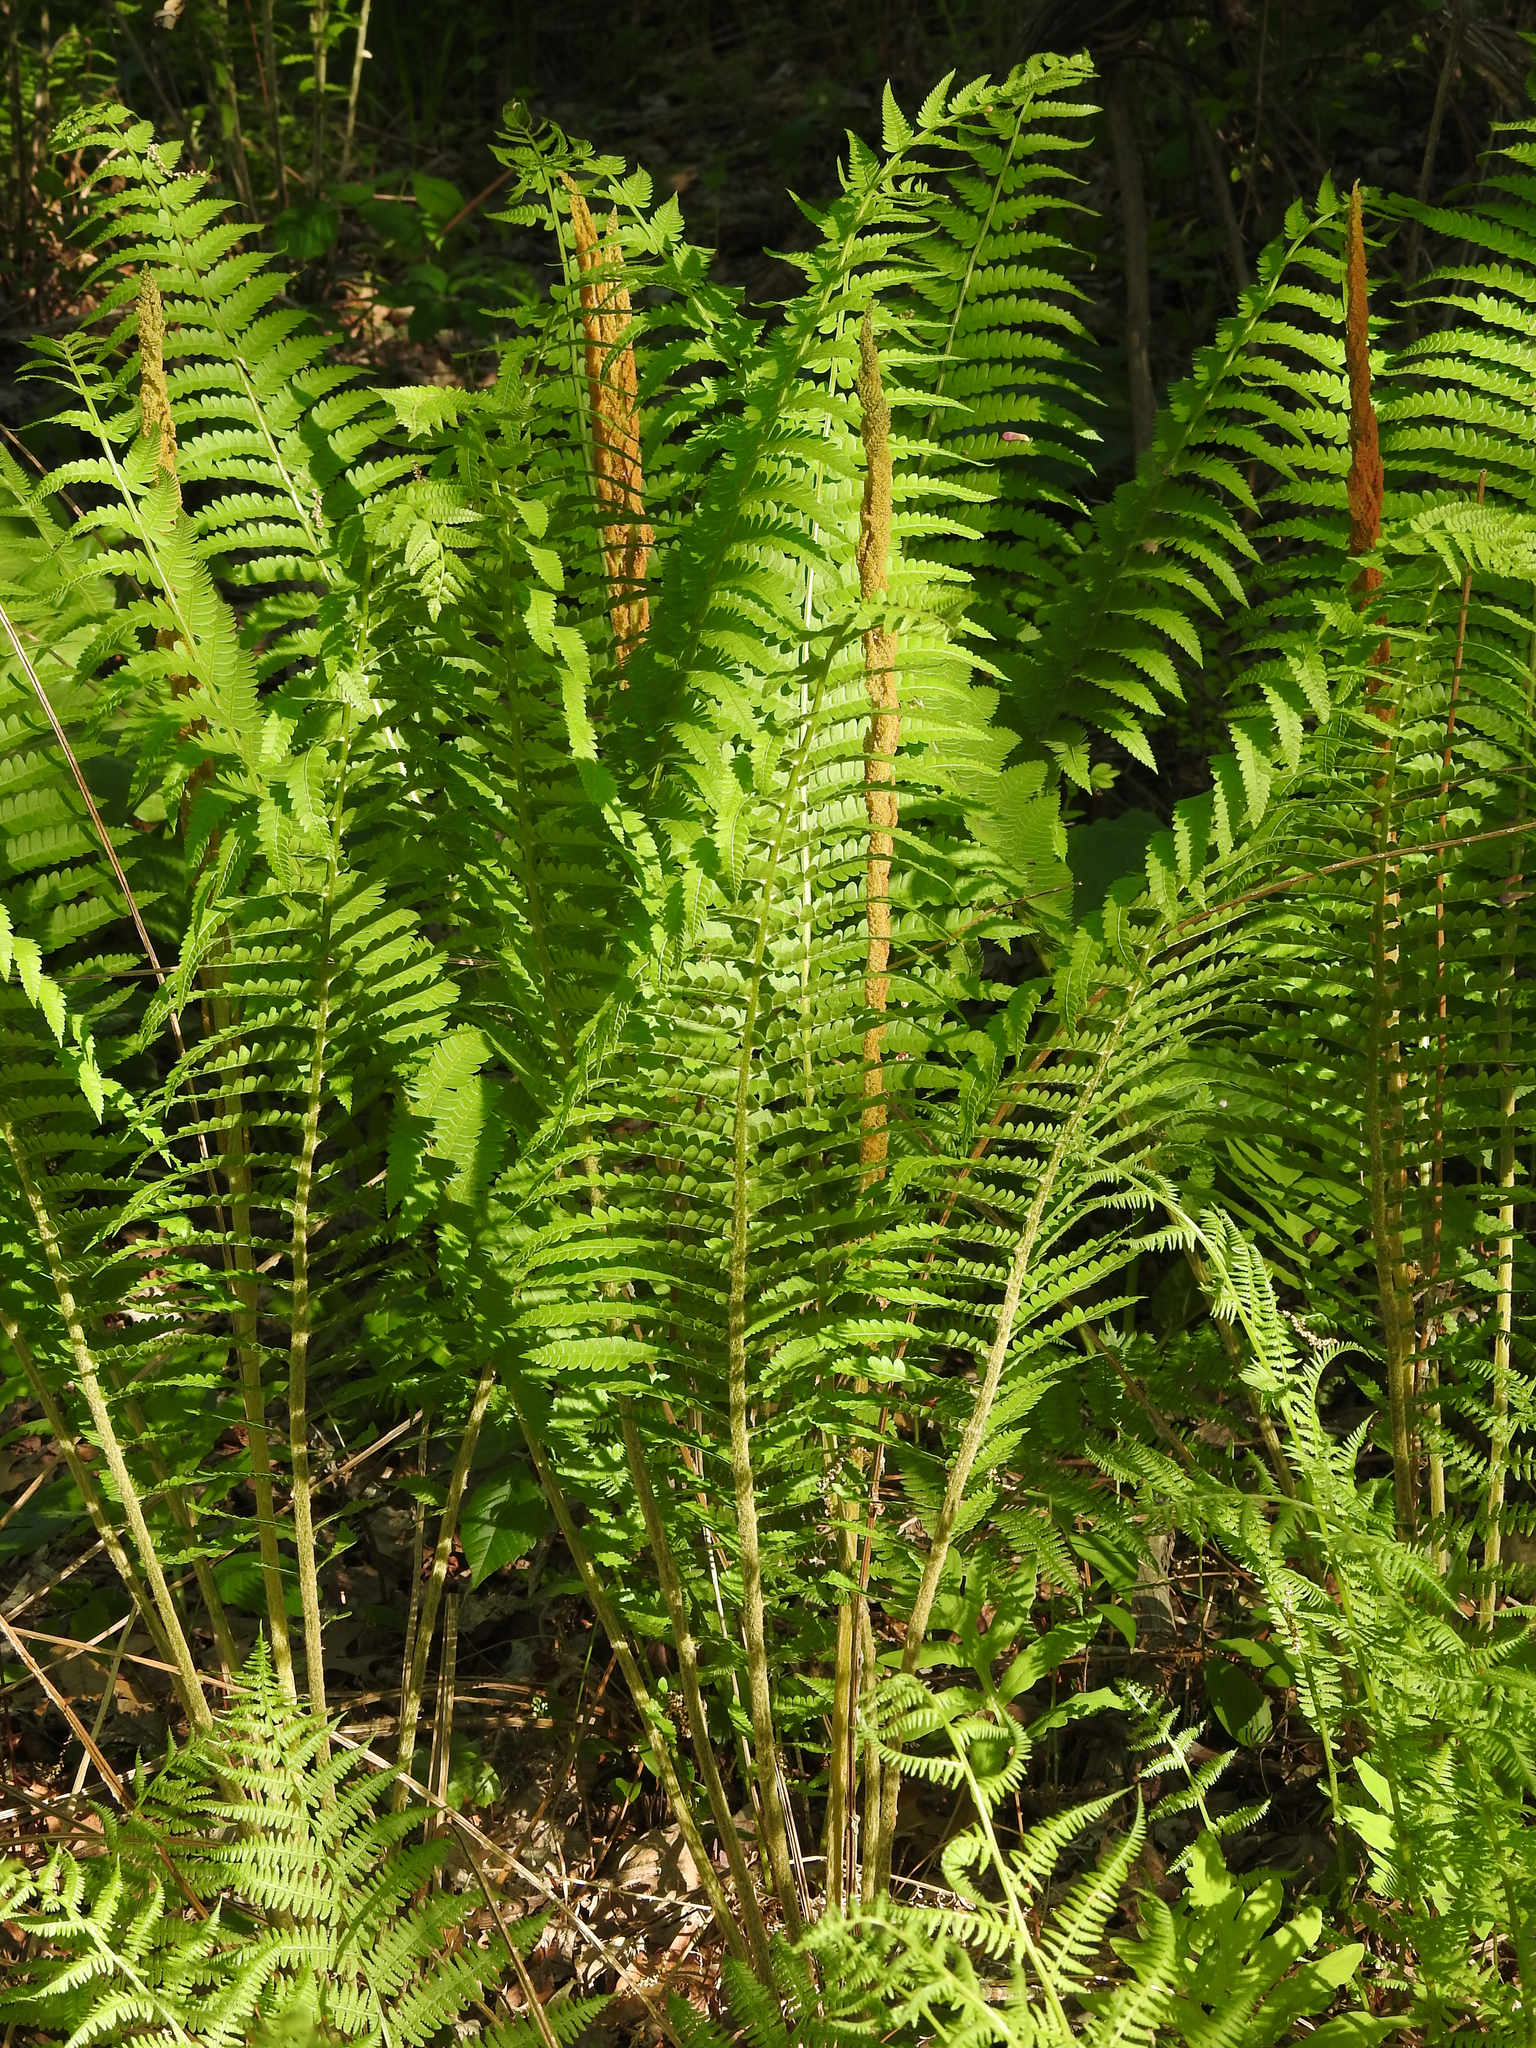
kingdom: Plantae
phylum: Tracheophyta
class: Polypodiopsida
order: Osmundales
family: Osmundaceae
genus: Osmundastrum
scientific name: Osmundastrum cinnamomeum
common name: Cinnamon fern
